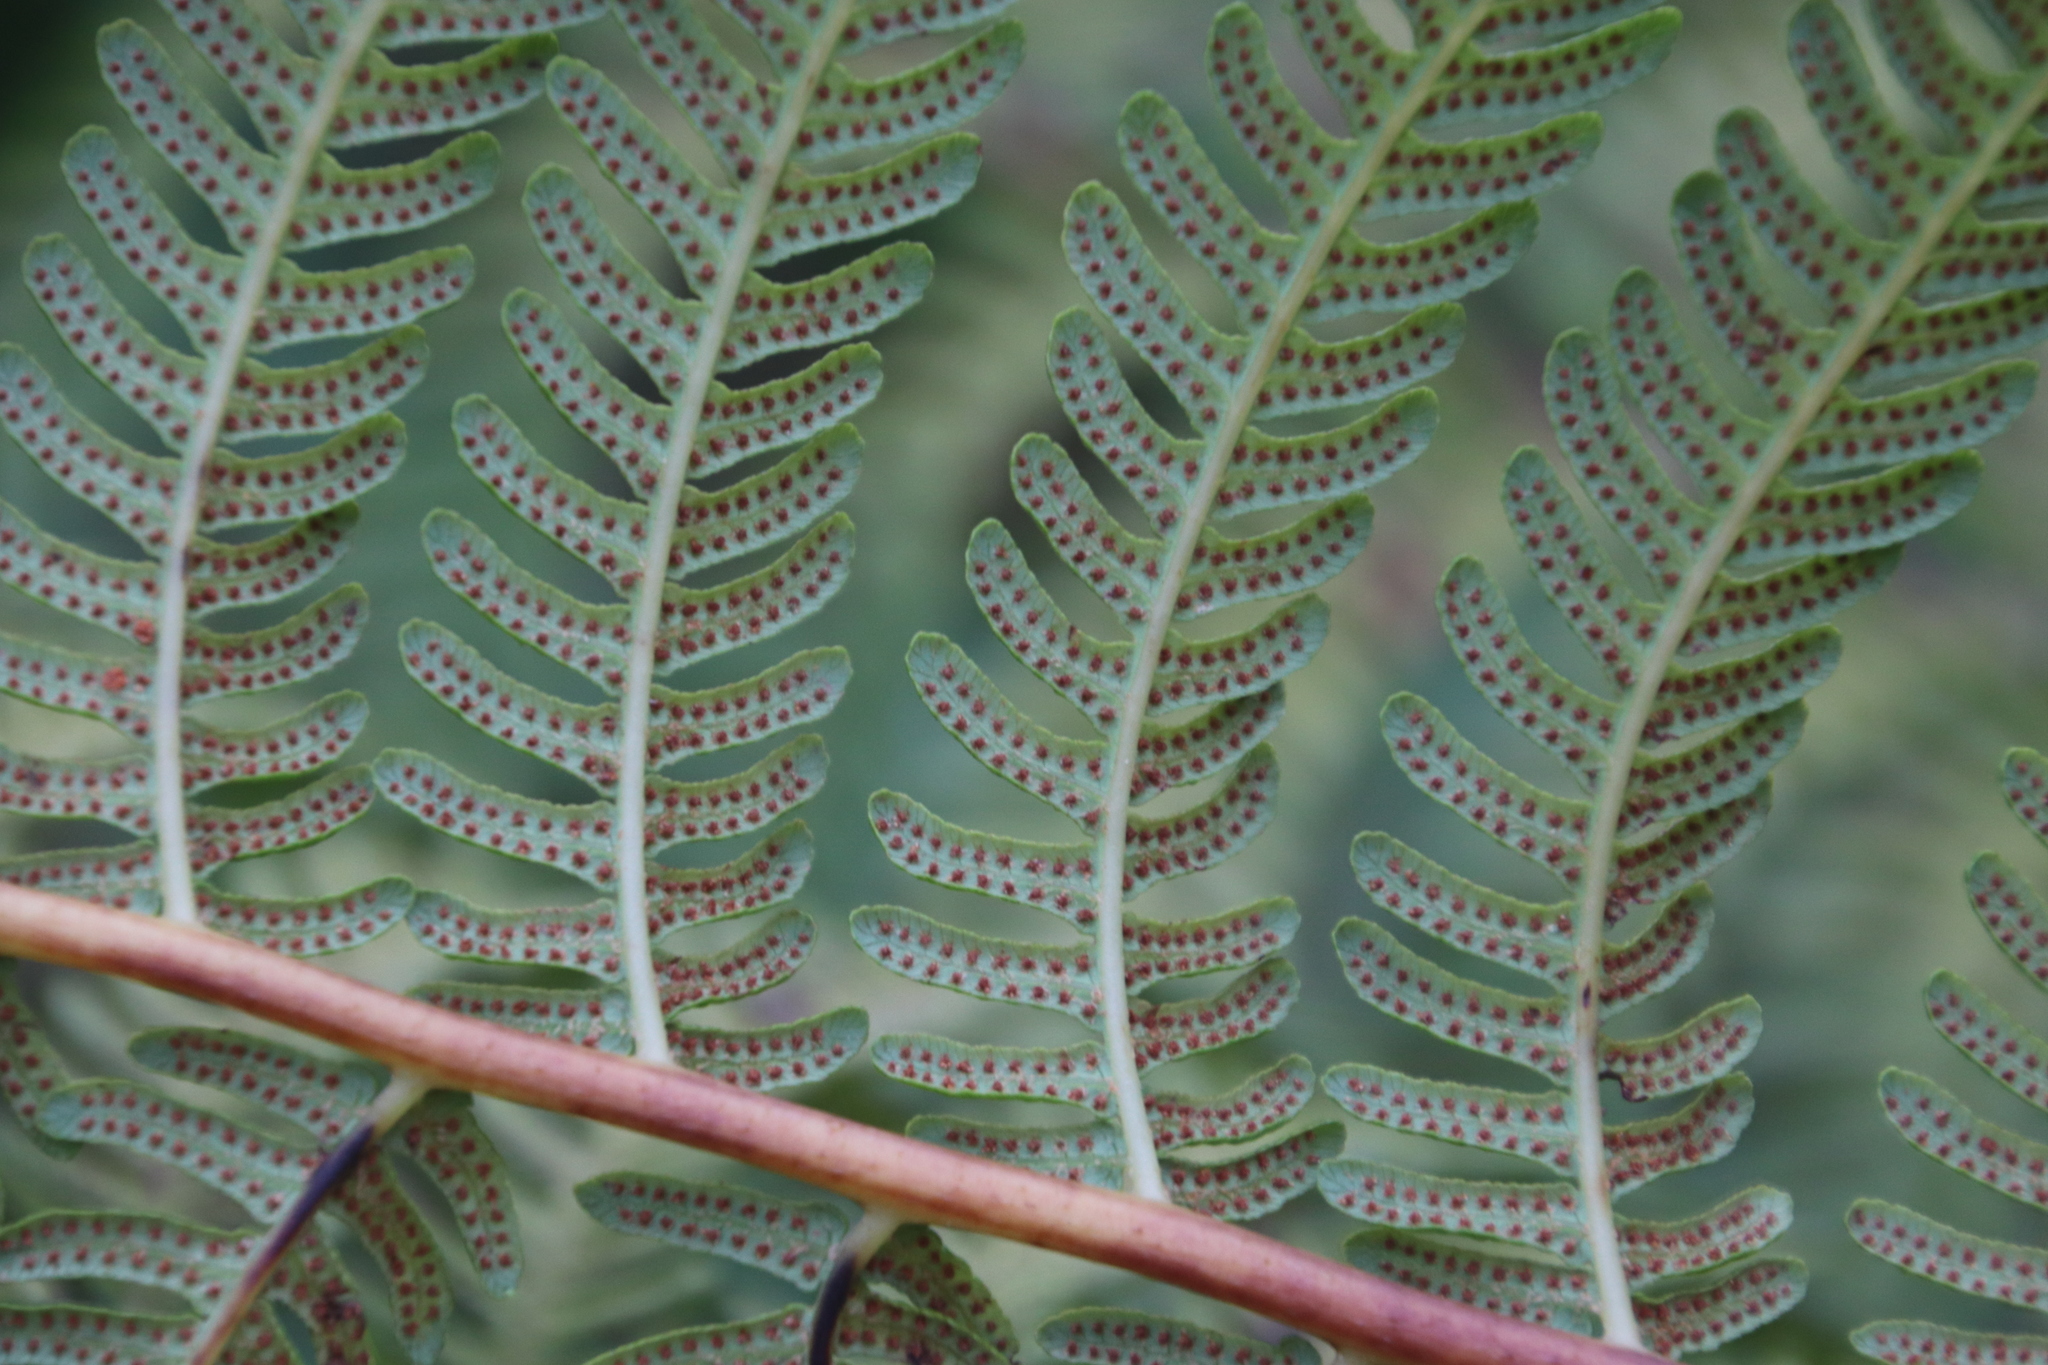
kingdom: Plantae
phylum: Tracheophyta
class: Polypodiopsida
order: Cyatheales
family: Cyatheaceae
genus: Sphaeropteris
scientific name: Sphaeropteris cooperi
